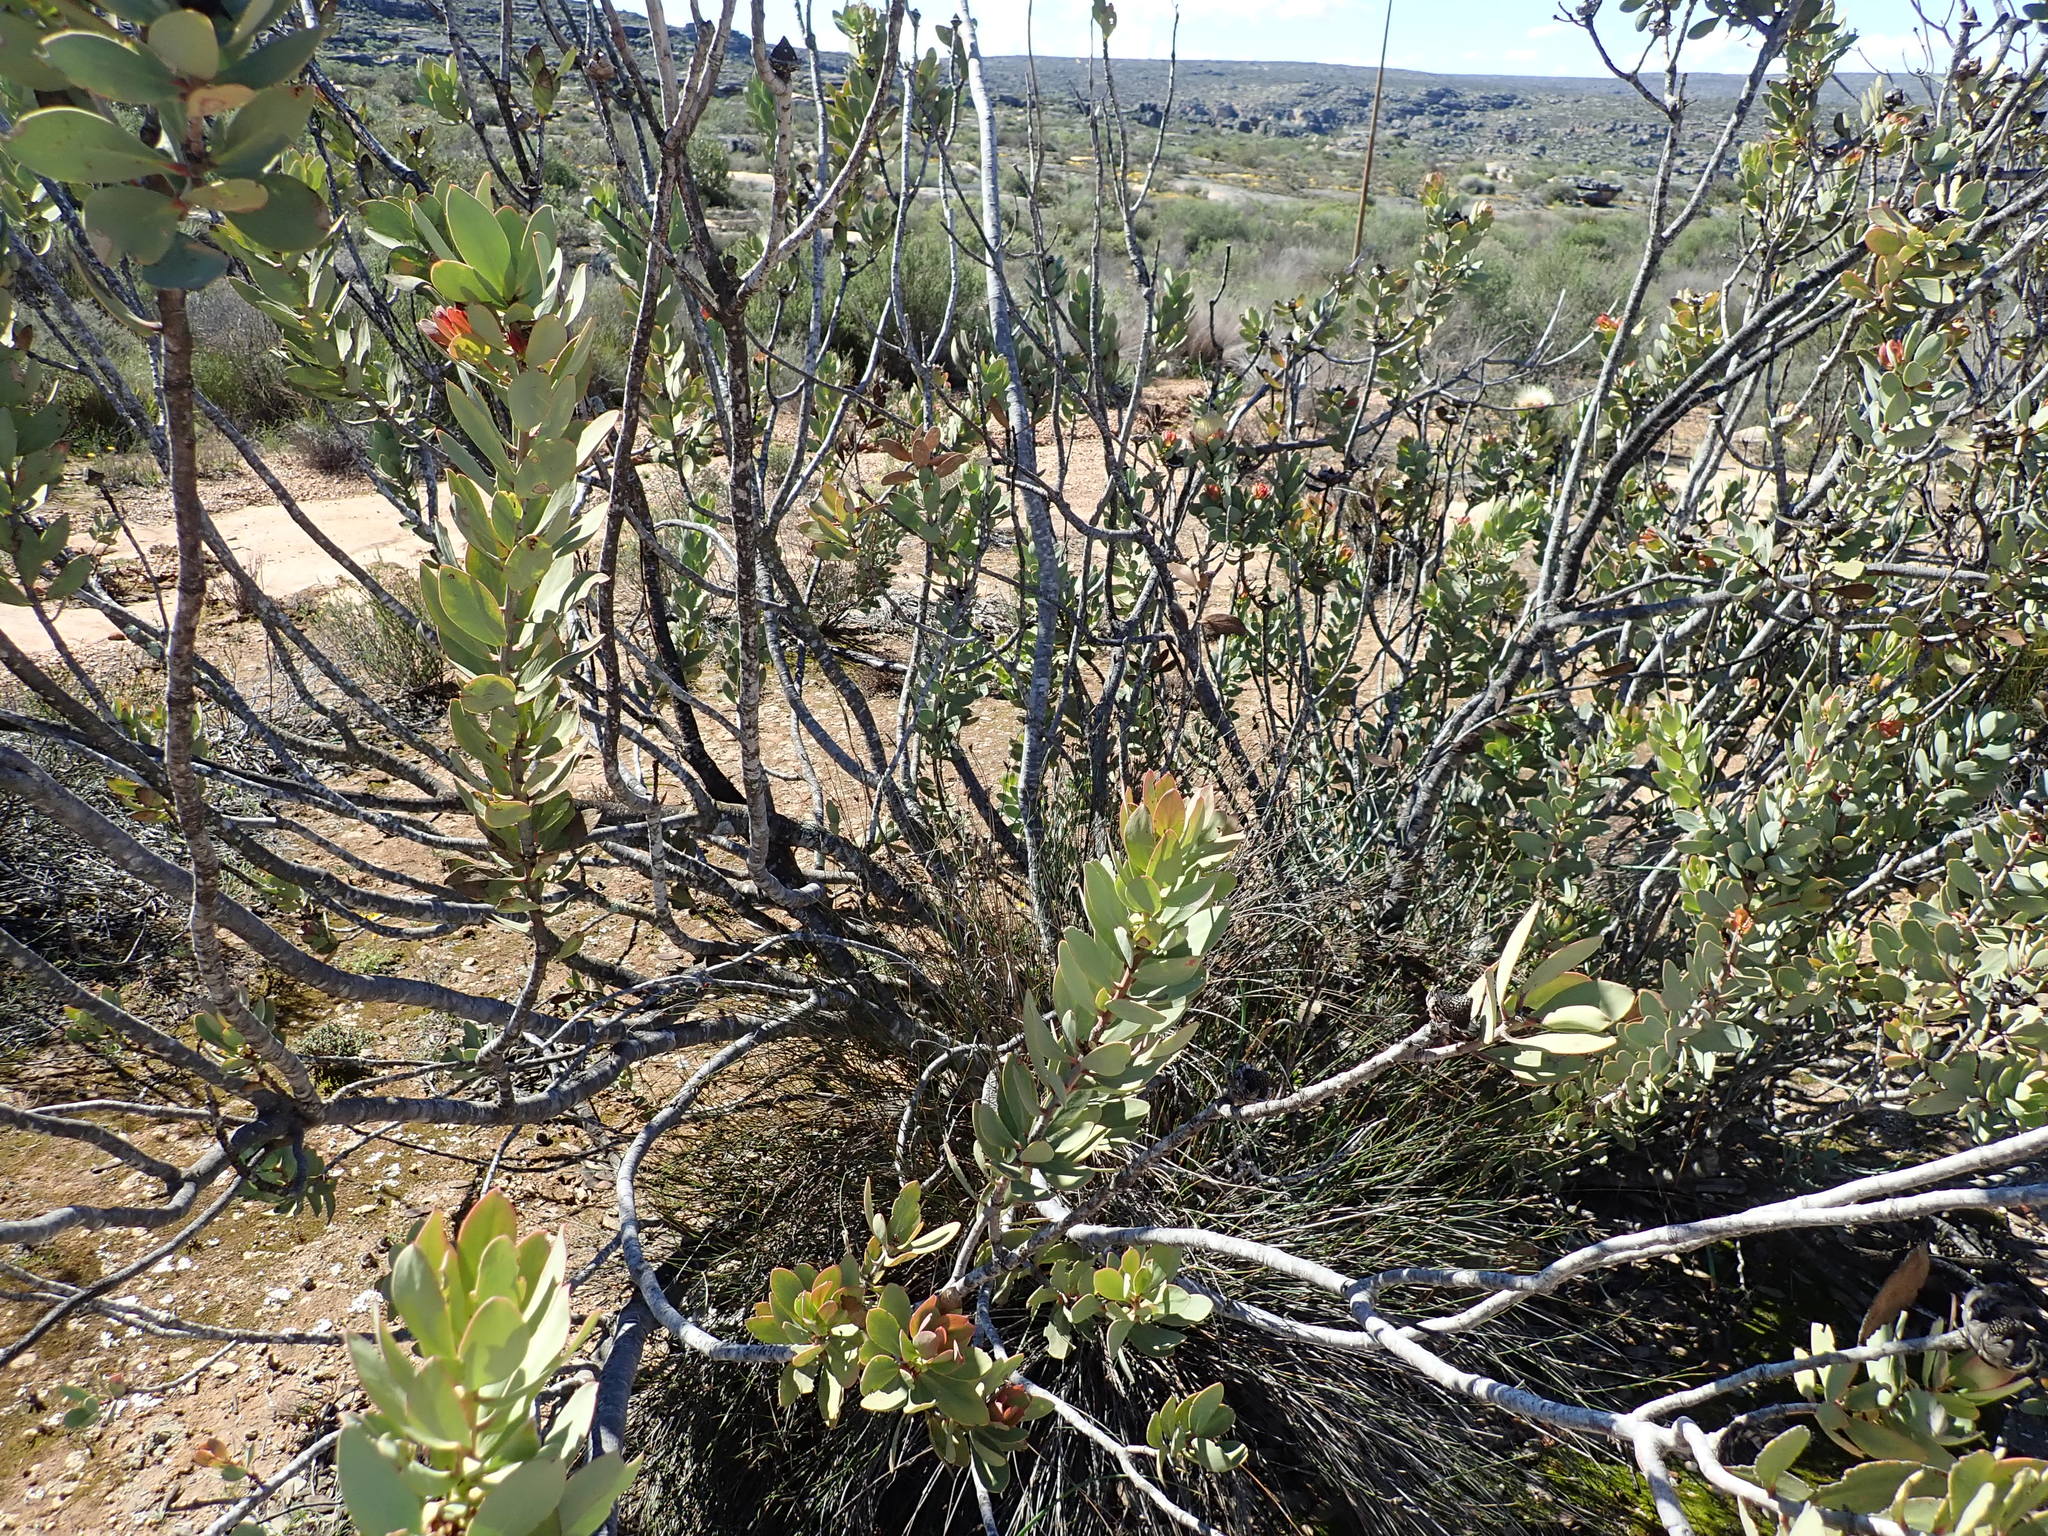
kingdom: Plantae
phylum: Tracheophyta
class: Magnoliopsida
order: Proteales
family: Proteaceae
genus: Protea
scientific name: Protea glabra
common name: Chestnut sugarbush
